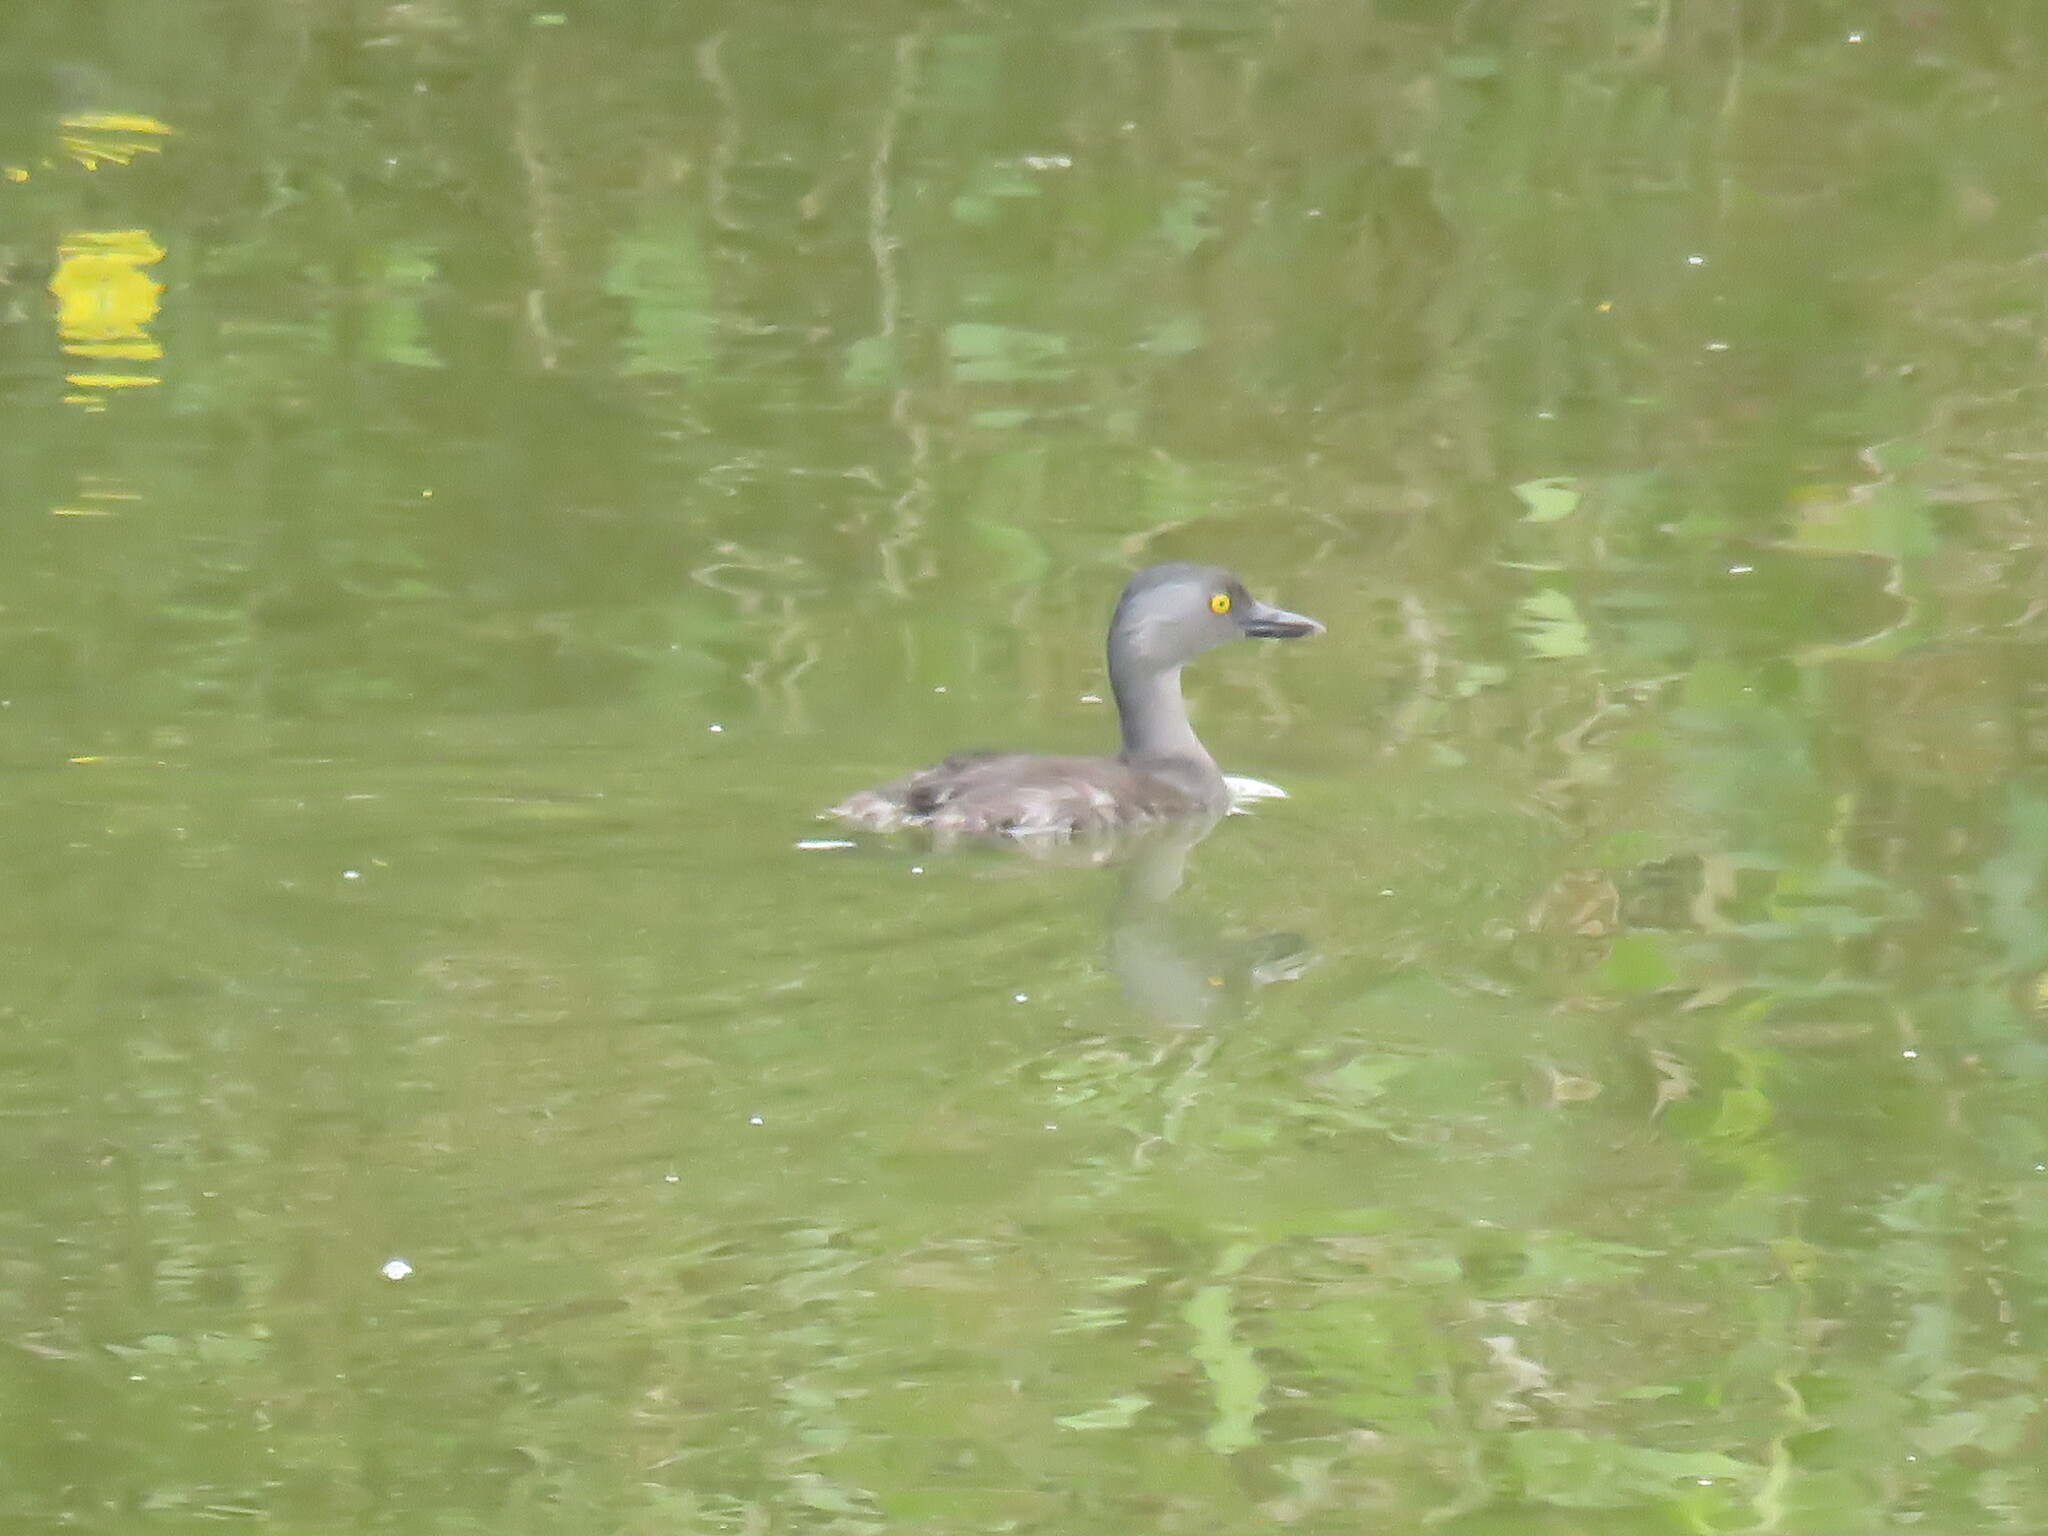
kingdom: Animalia
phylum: Chordata
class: Aves
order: Podicipediformes
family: Podicipedidae
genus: Tachybaptus
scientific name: Tachybaptus dominicus
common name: Least grebe
